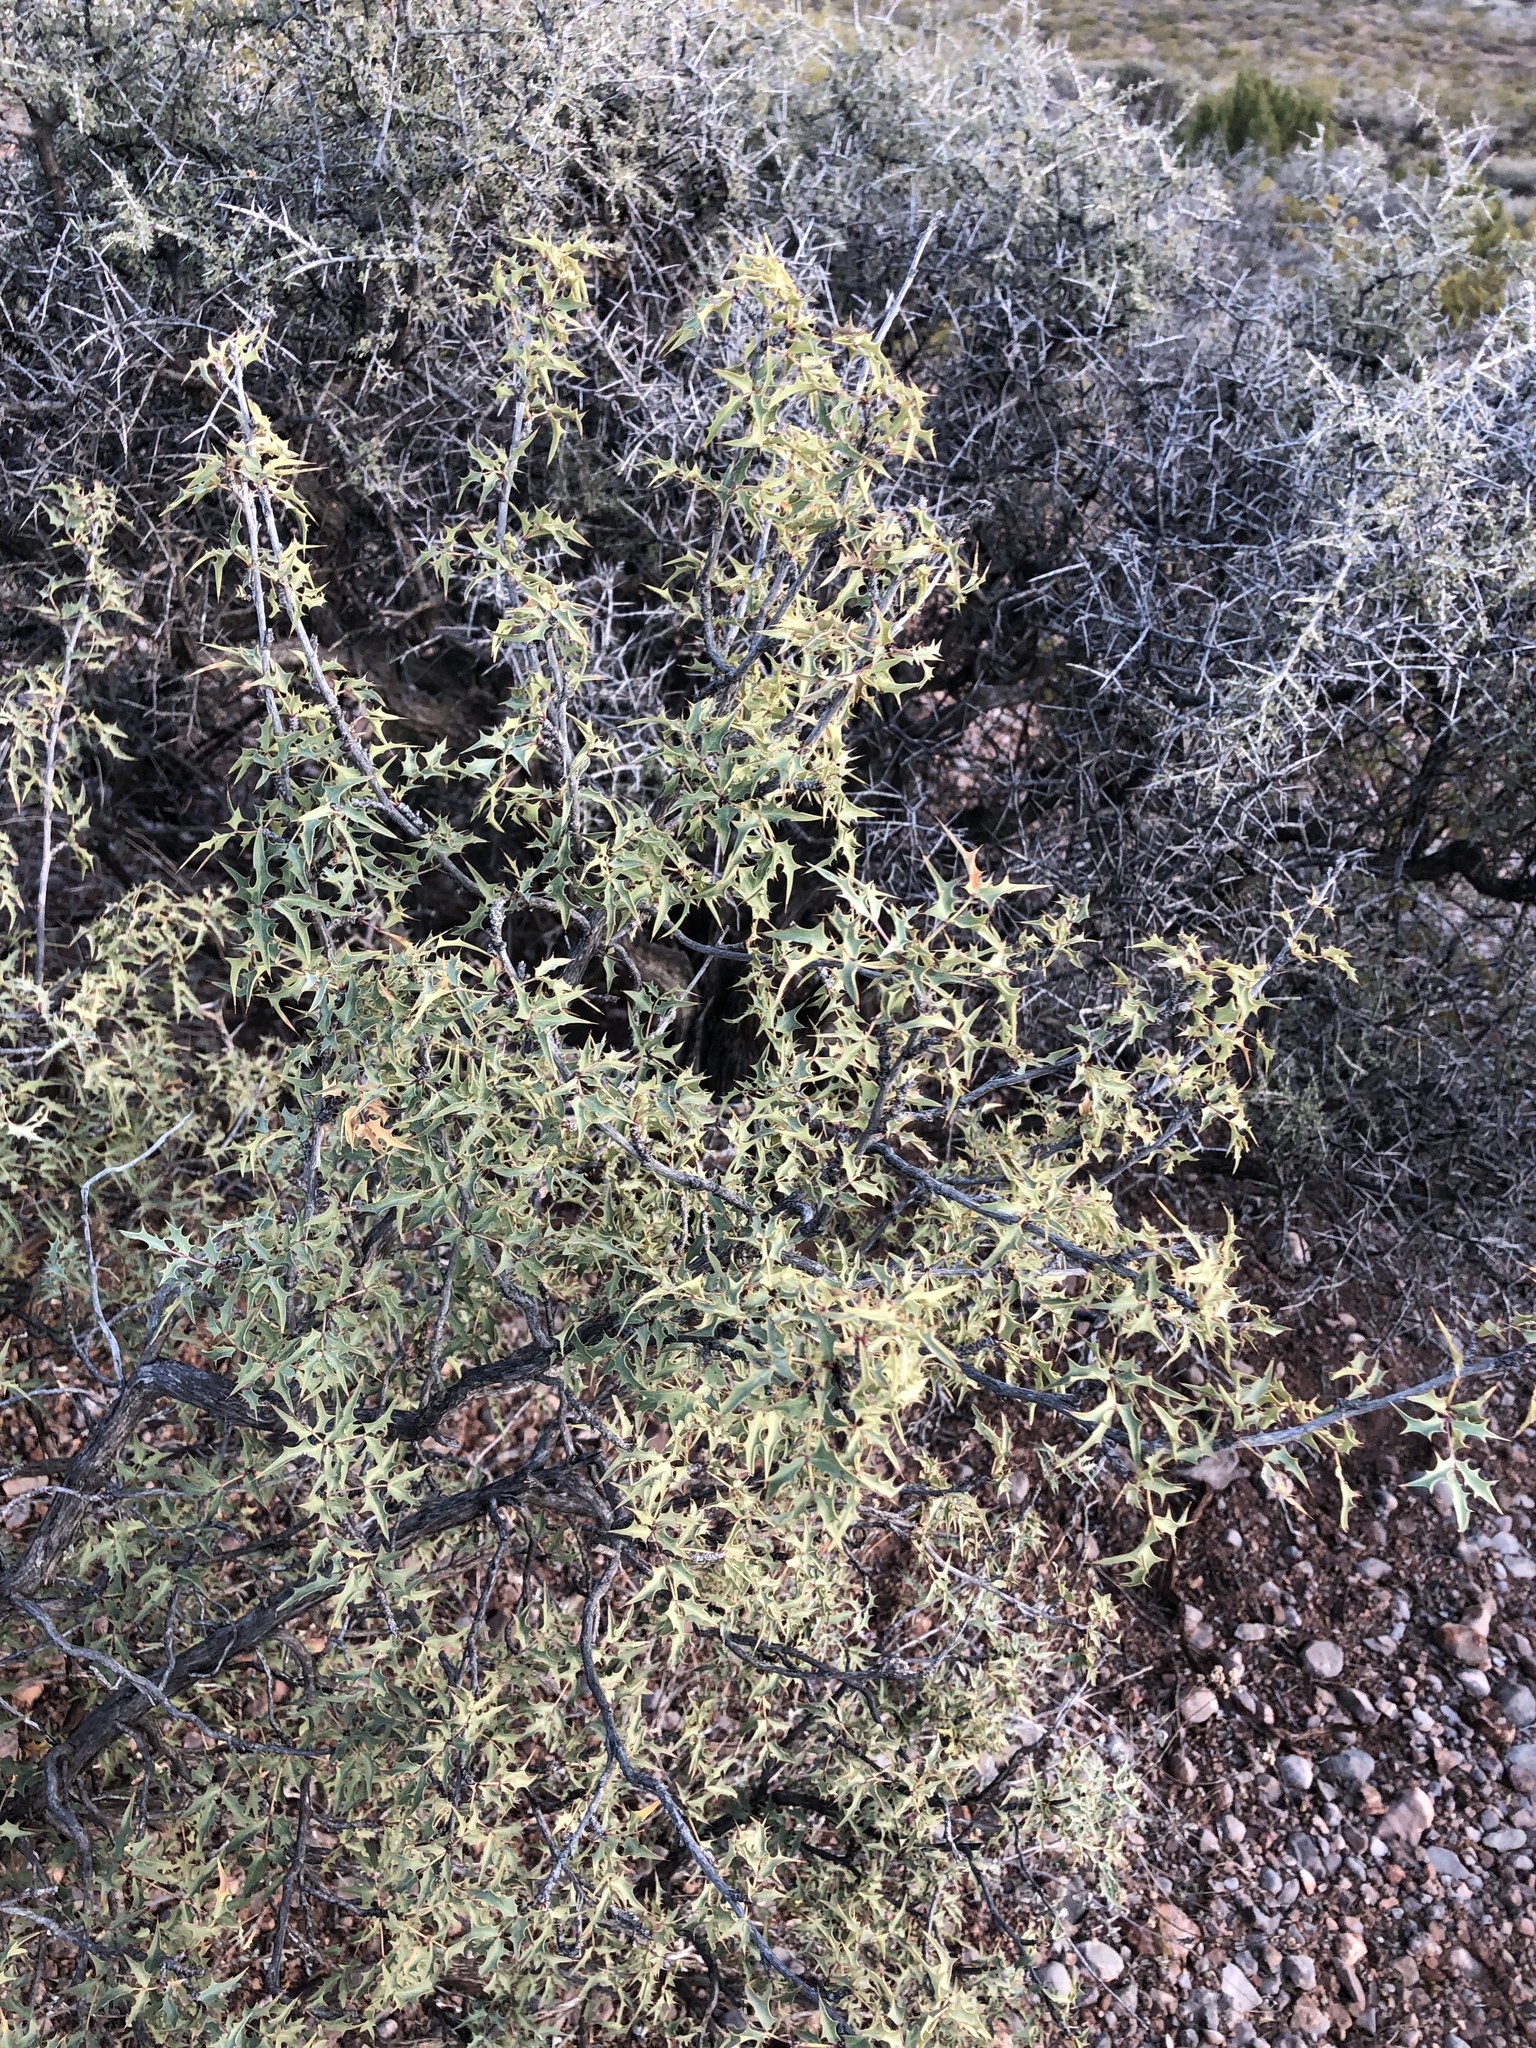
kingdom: Plantae
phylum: Tracheophyta
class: Magnoliopsida
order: Ranunculales
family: Berberidaceae
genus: Alloberberis
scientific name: Alloberberis haematocarpa
